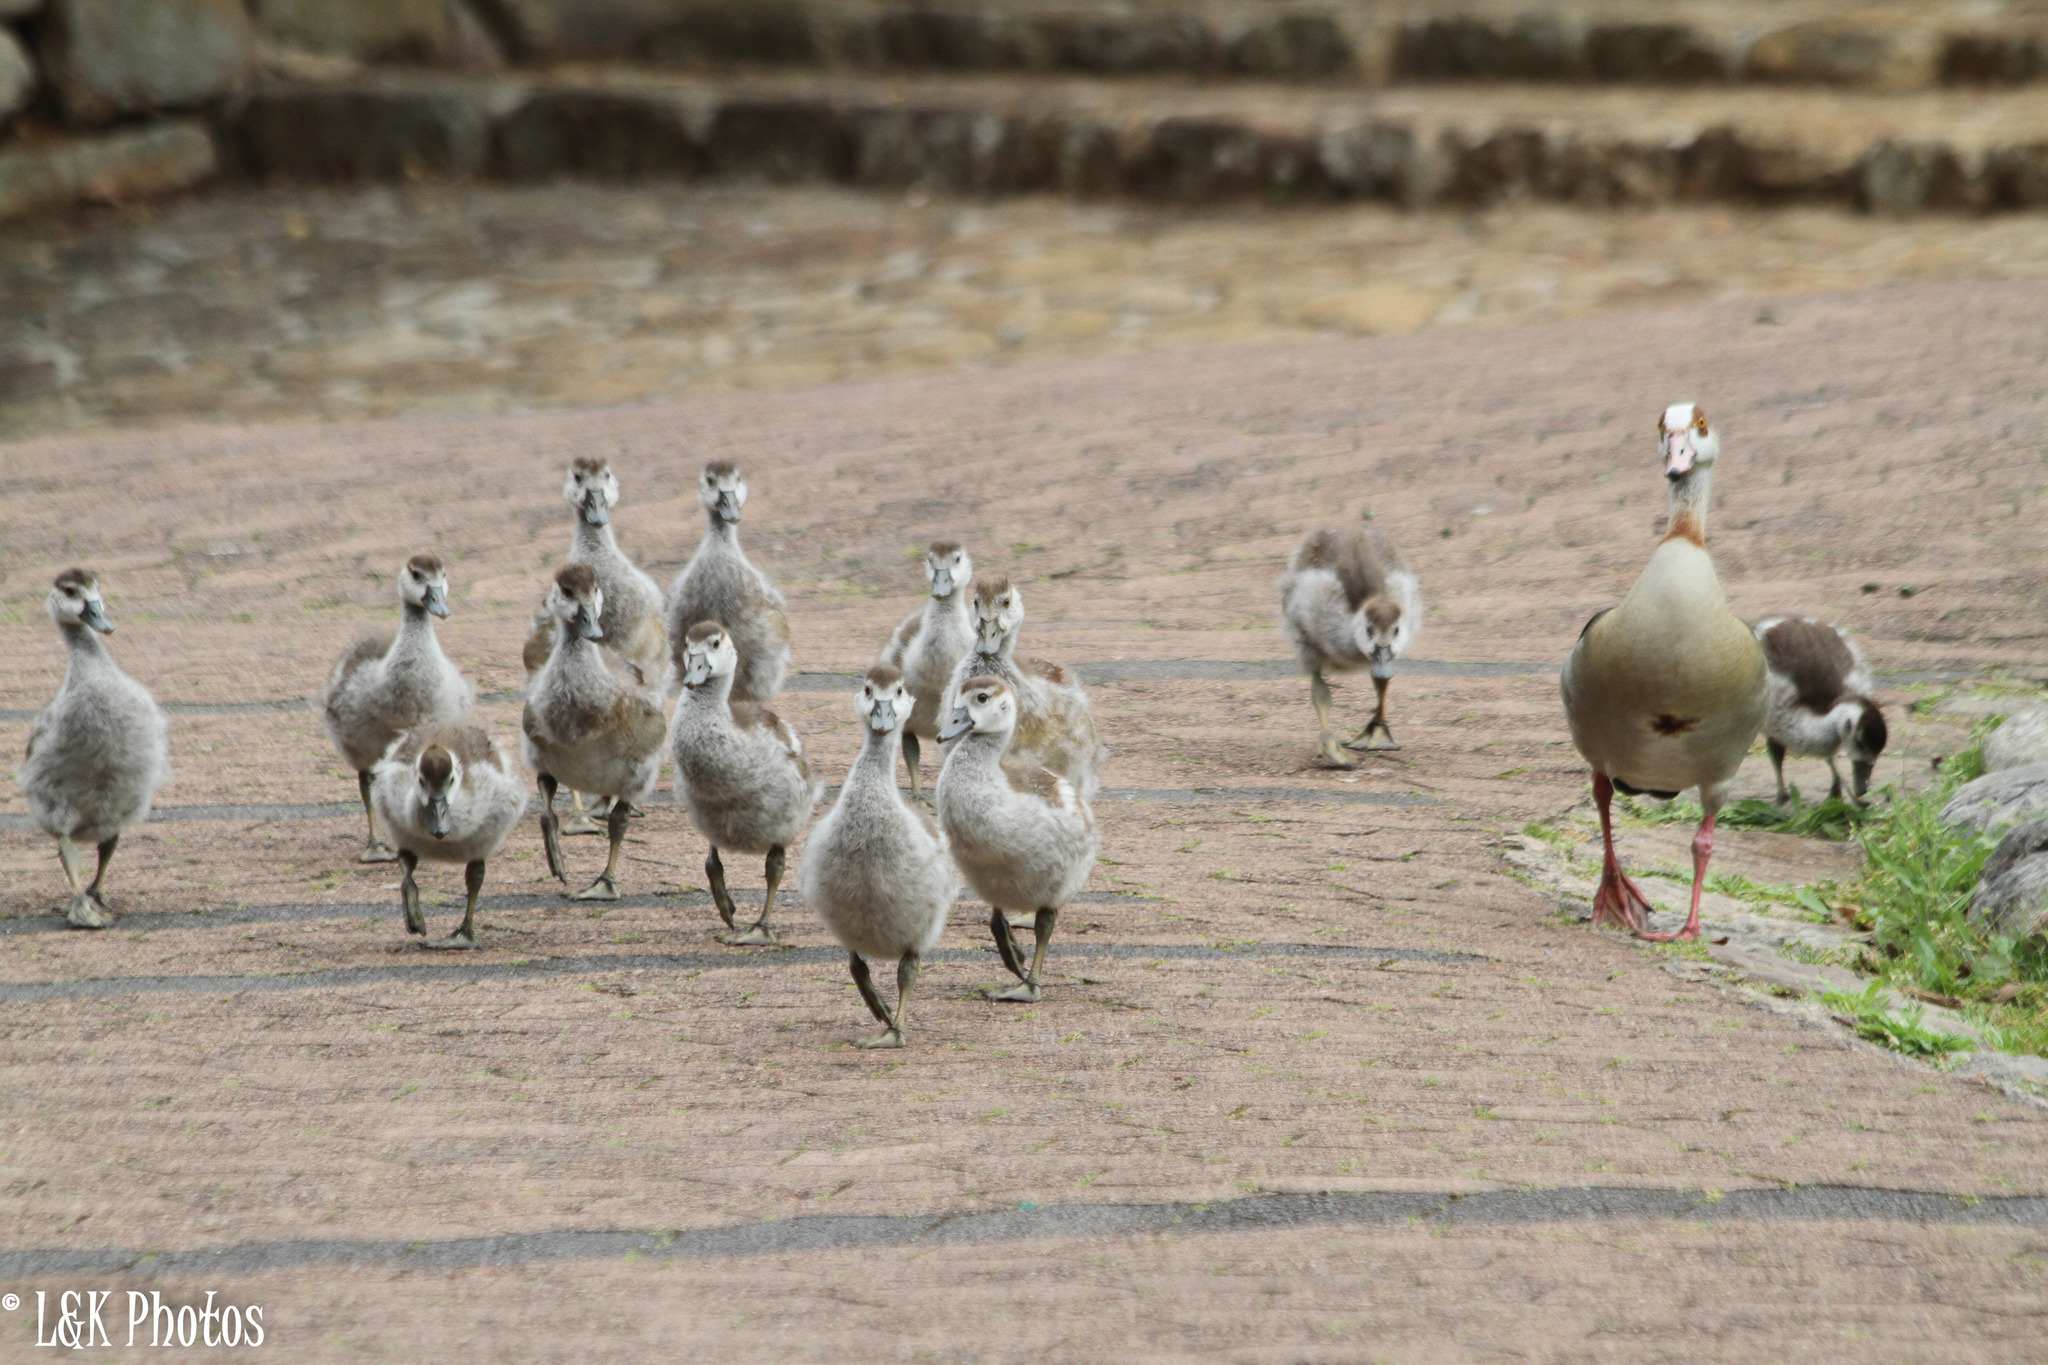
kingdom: Animalia
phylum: Chordata
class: Aves
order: Anseriformes
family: Anatidae
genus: Alopochen
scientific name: Alopochen aegyptiaca
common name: Egyptian goose
